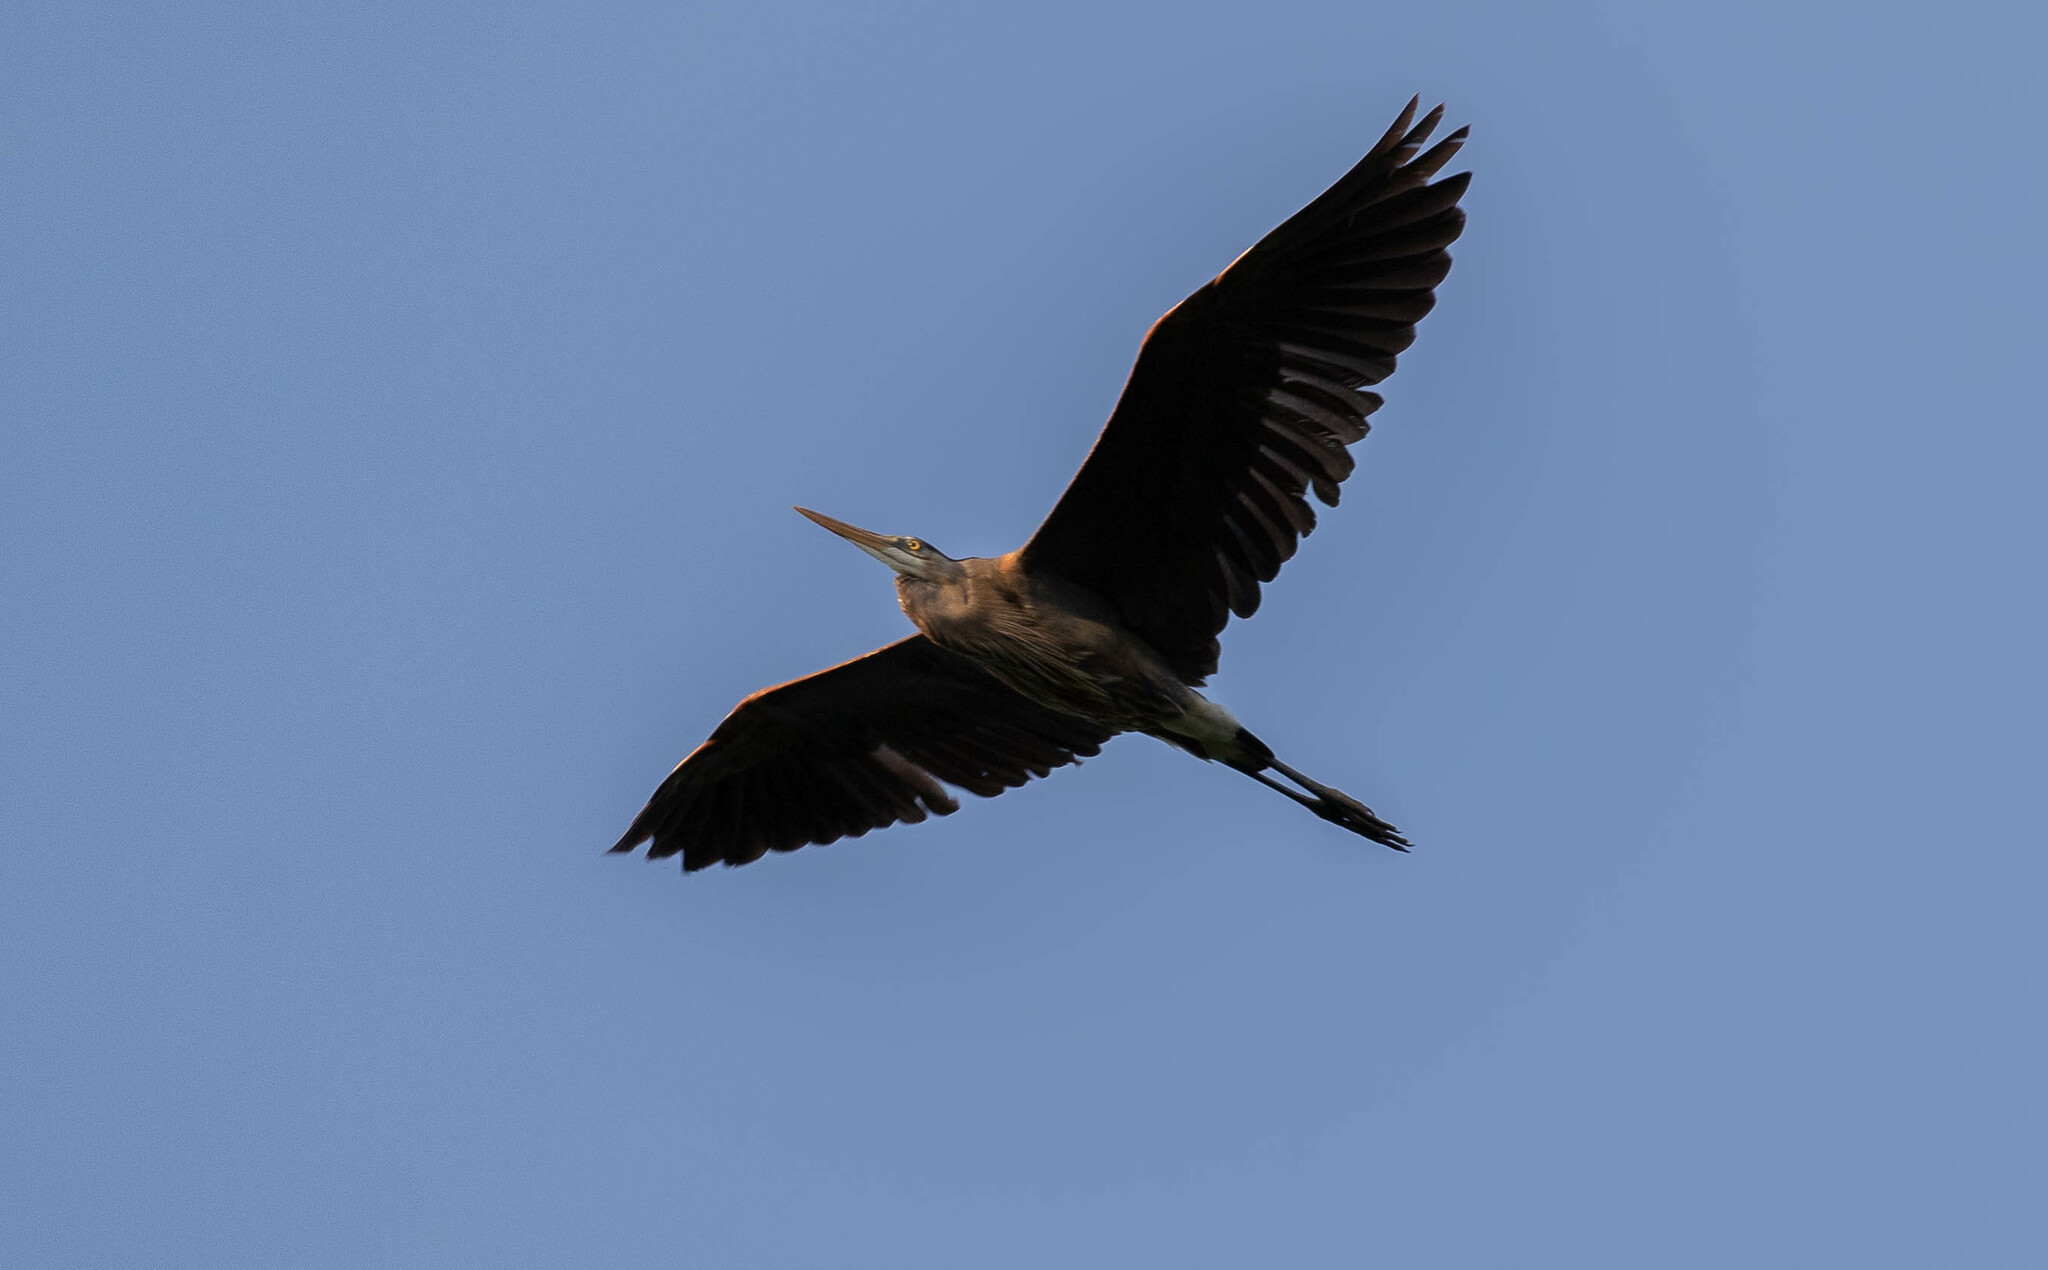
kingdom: Animalia
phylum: Chordata
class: Aves
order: Pelecaniformes
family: Ardeidae
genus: Ardea
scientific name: Ardea herodias
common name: Great blue heron
